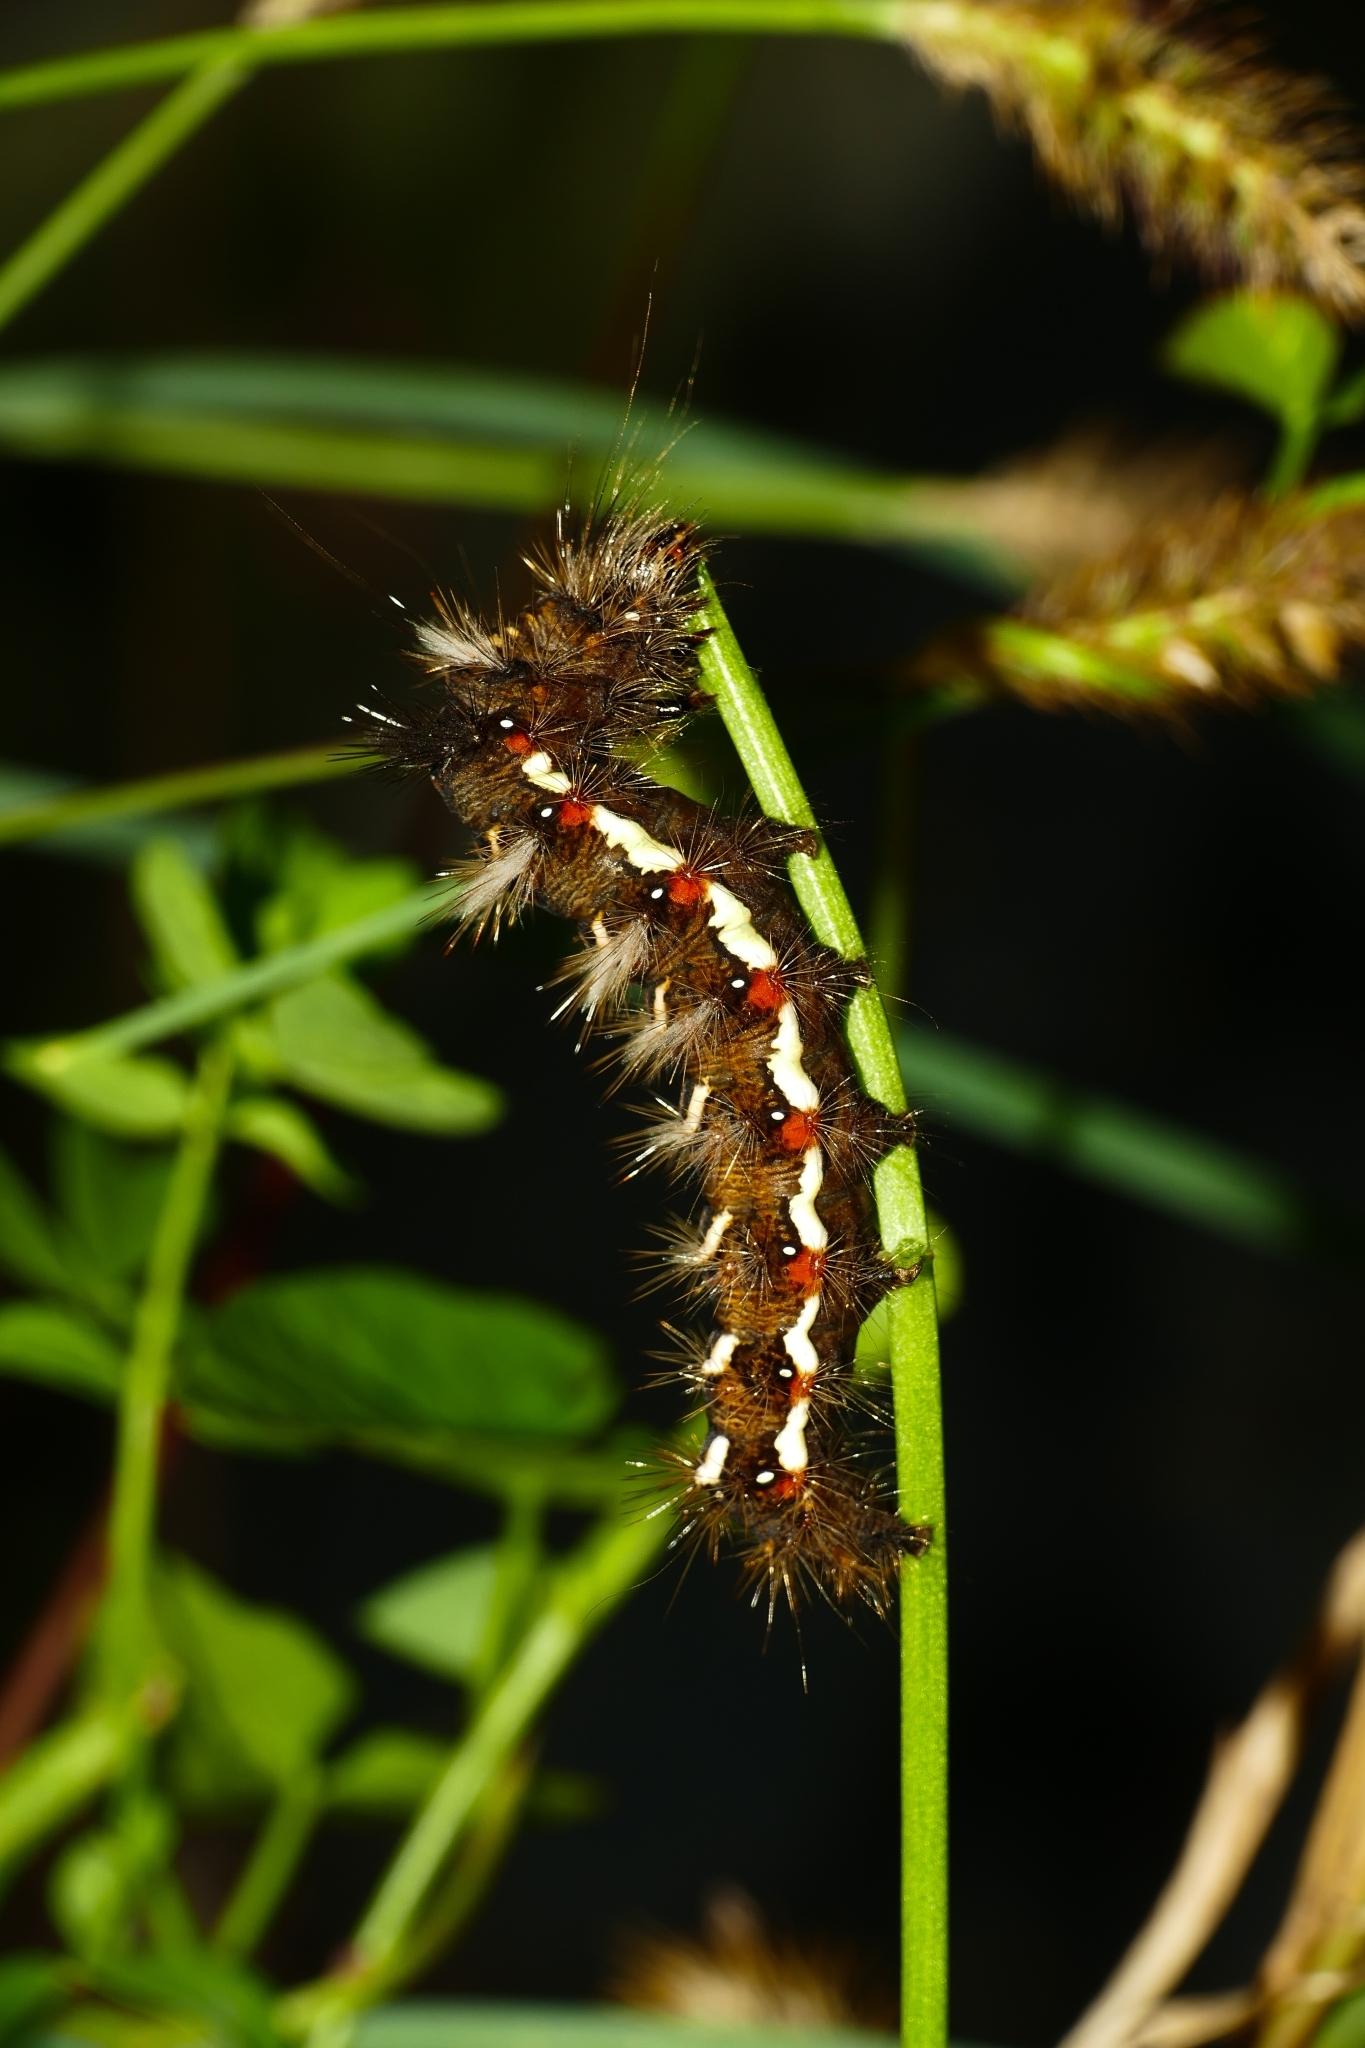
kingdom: Animalia
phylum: Arthropoda
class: Insecta
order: Lepidoptera
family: Noctuidae
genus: Acronicta
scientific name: Acronicta rumicis
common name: Knot grass
